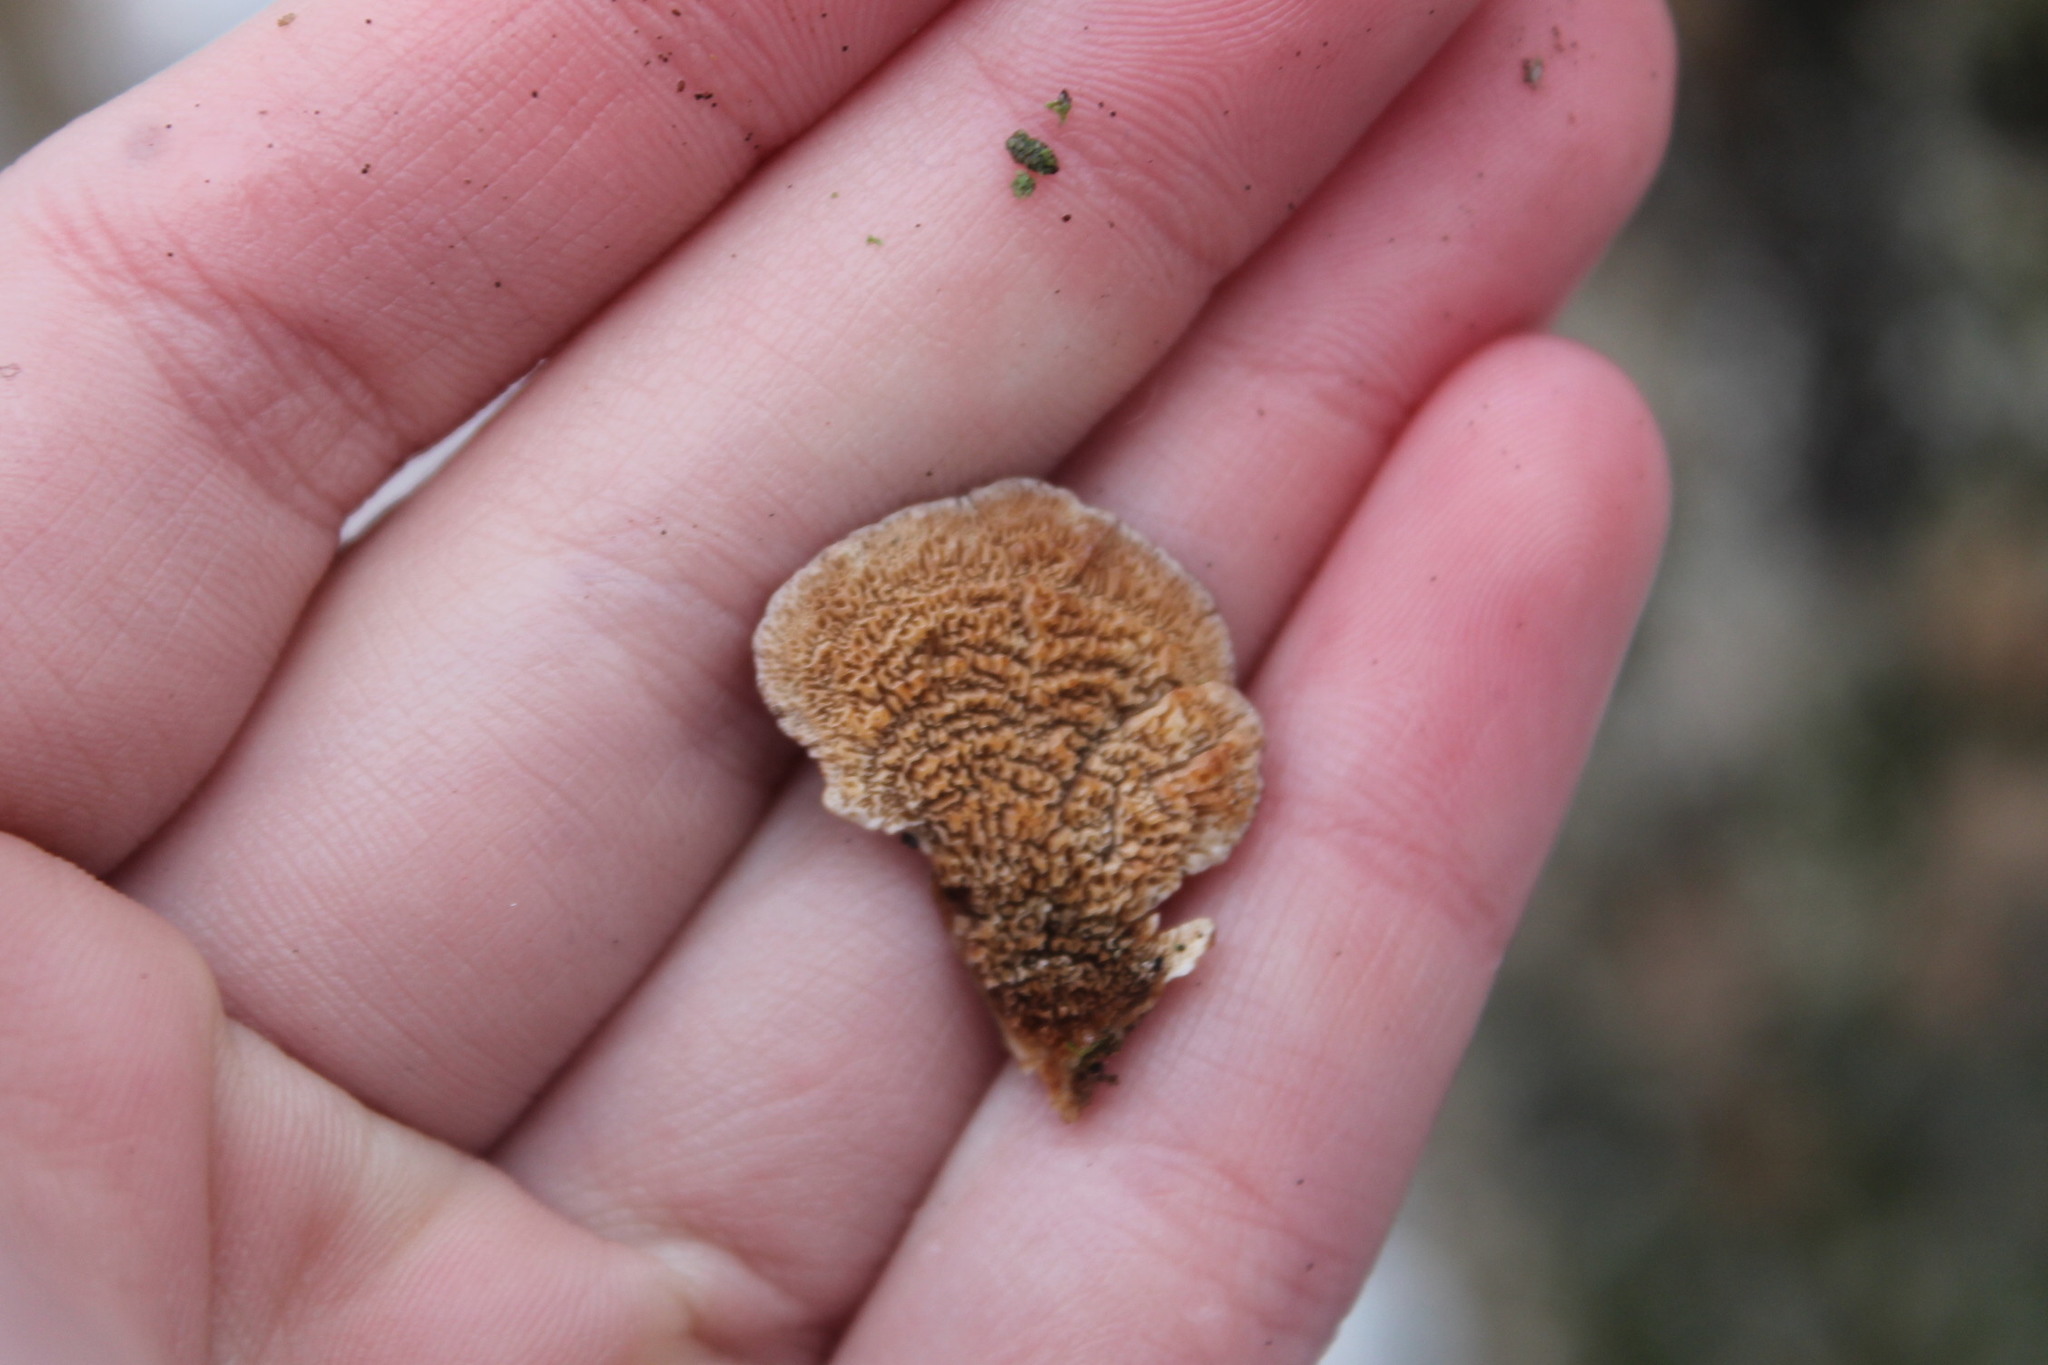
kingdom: Fungi
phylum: Basidiomycota
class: Agaricomycetes
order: Hymenochaetales
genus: Trichaptum
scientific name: Trichaptum biforme
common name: Violet-toothed polypore
